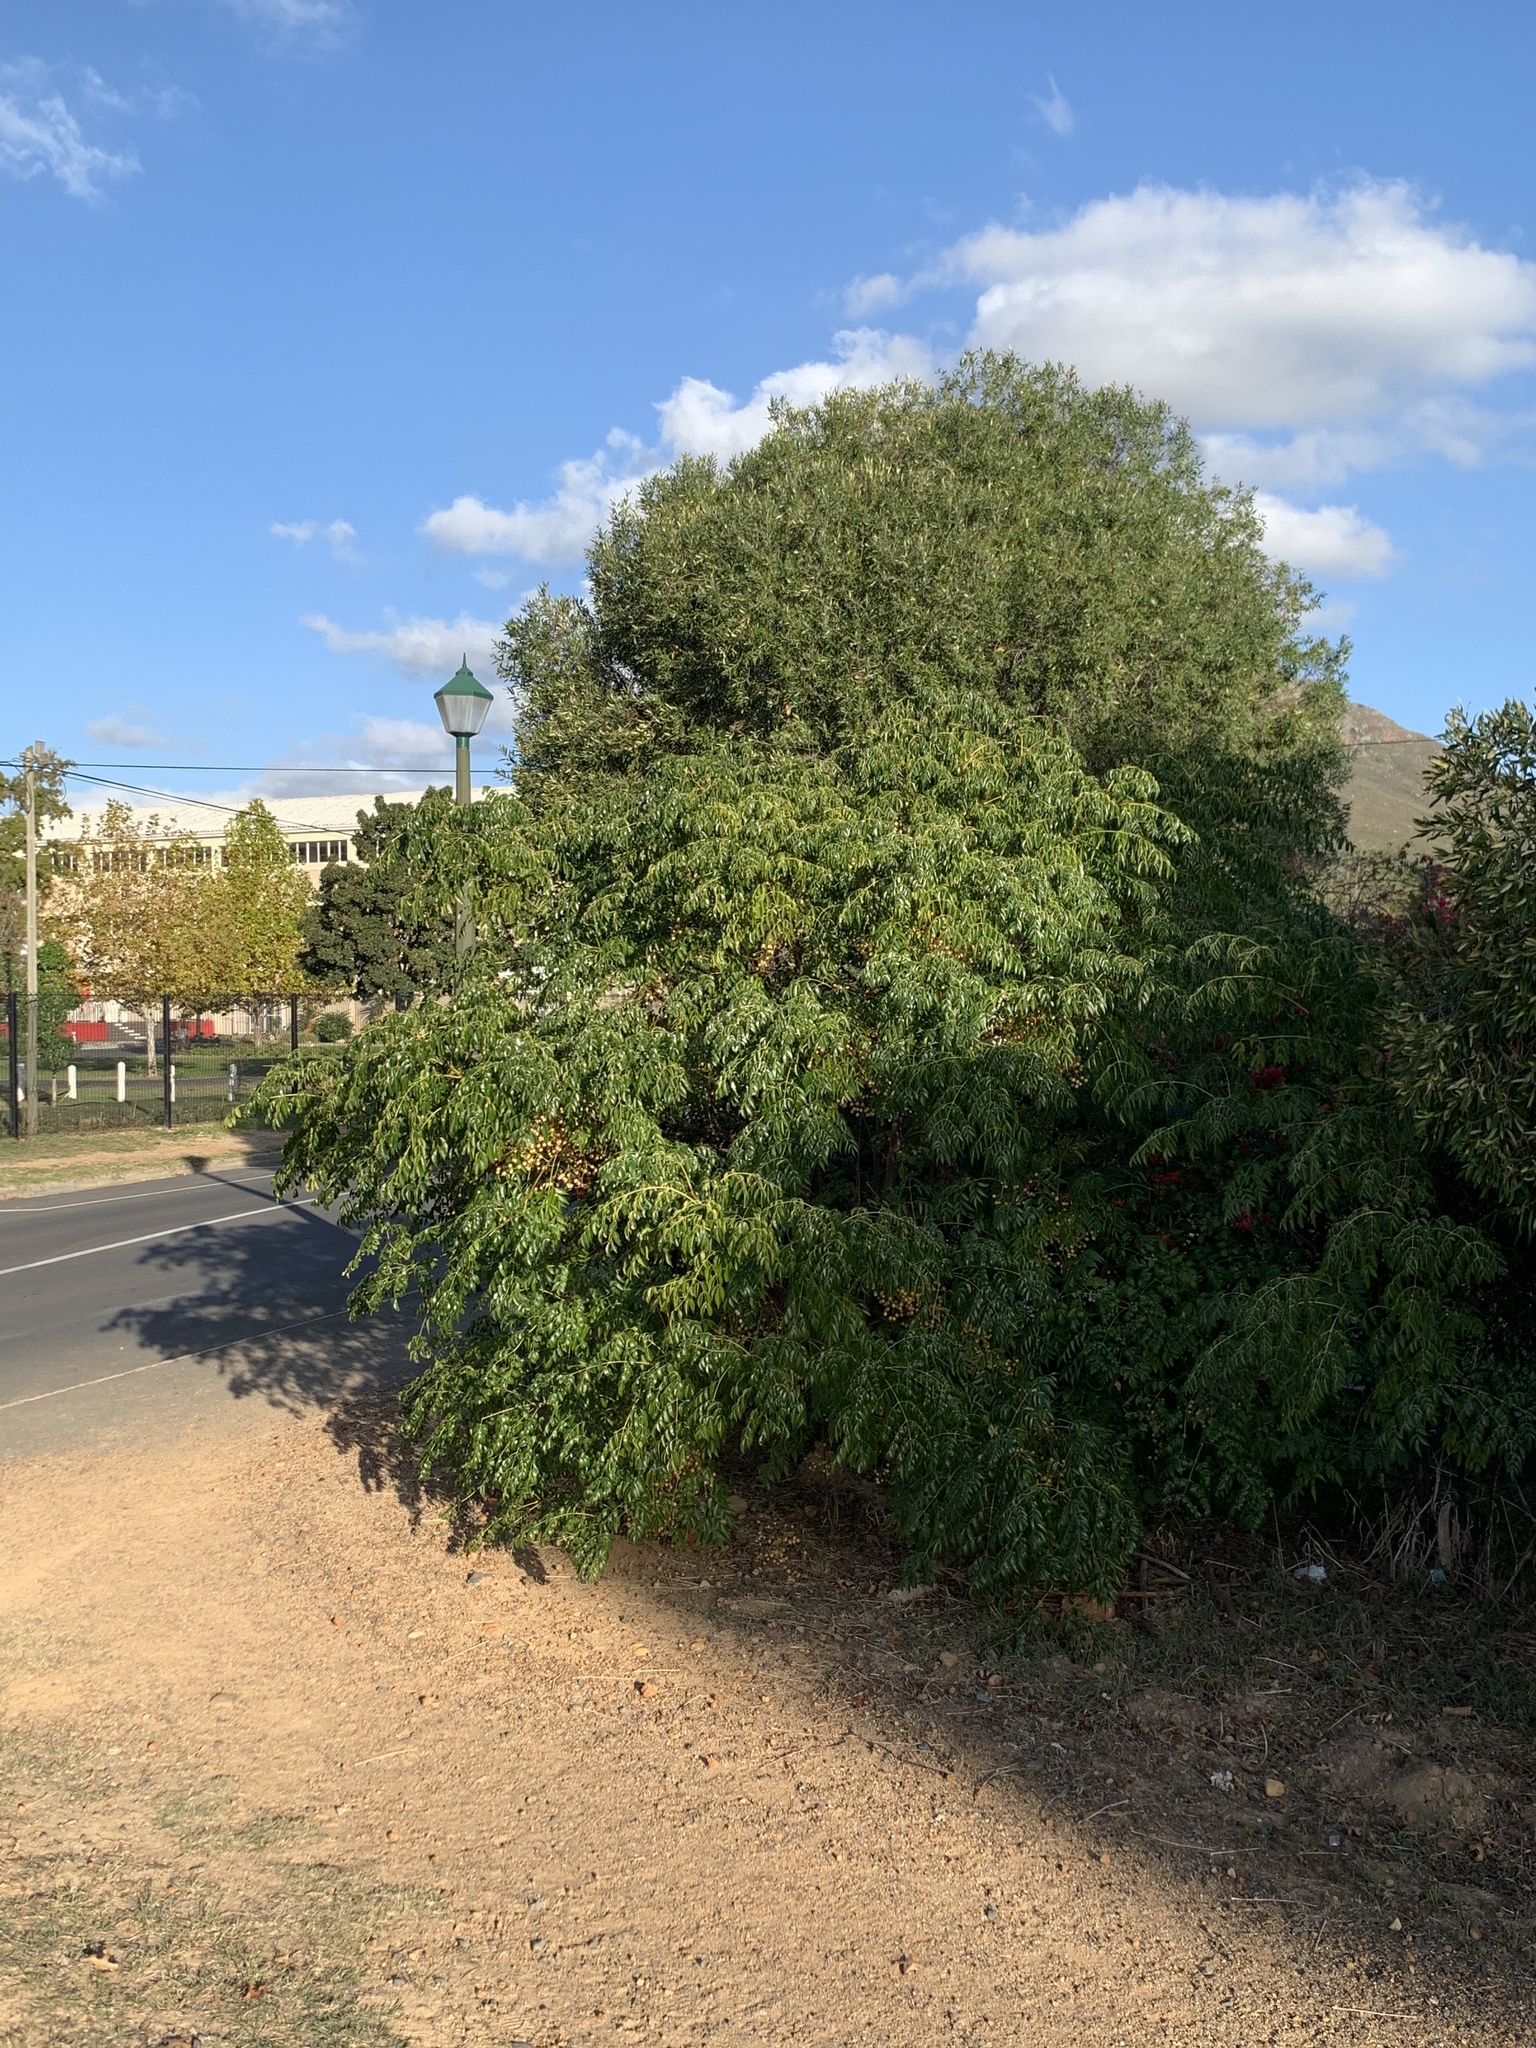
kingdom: Plantae
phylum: Tracheophyta
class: Magnoliopsida
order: Sapindales
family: Meliaceae
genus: Melia
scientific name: Melia azedarach
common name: Chinaberrytree
